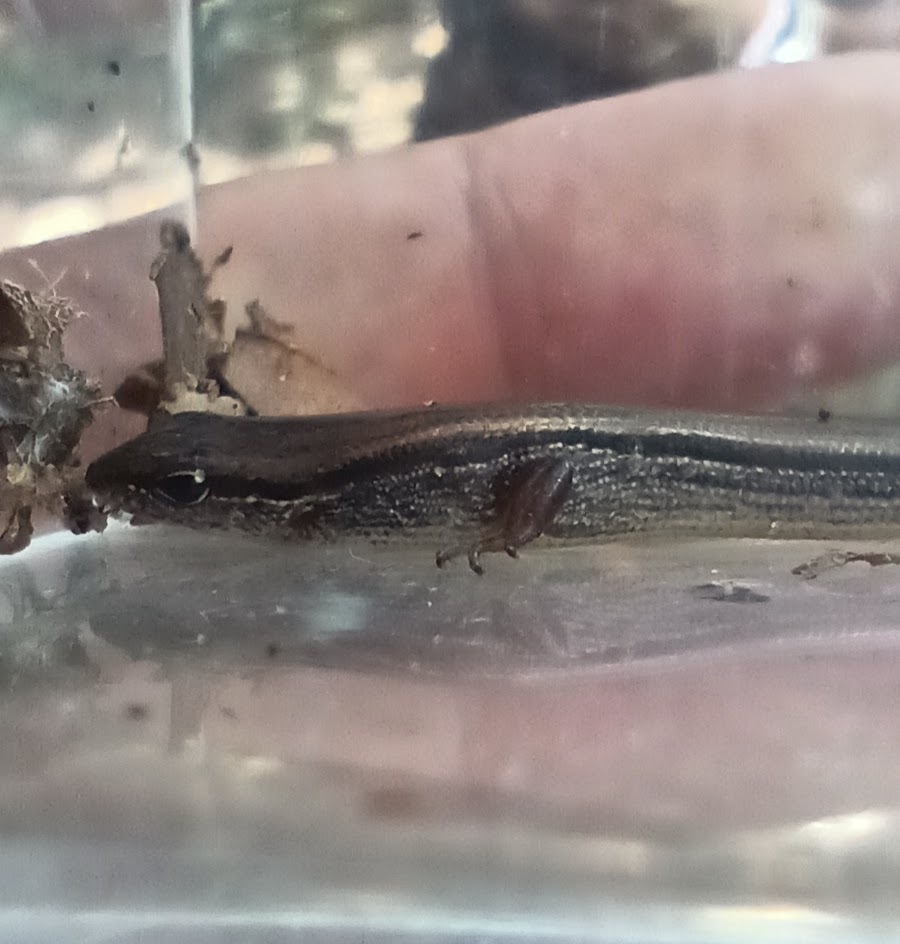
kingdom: Animalia
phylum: Chordata
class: Squamata
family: Scincidae
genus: Scincella
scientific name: Scincella lateralis
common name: Ground skink
